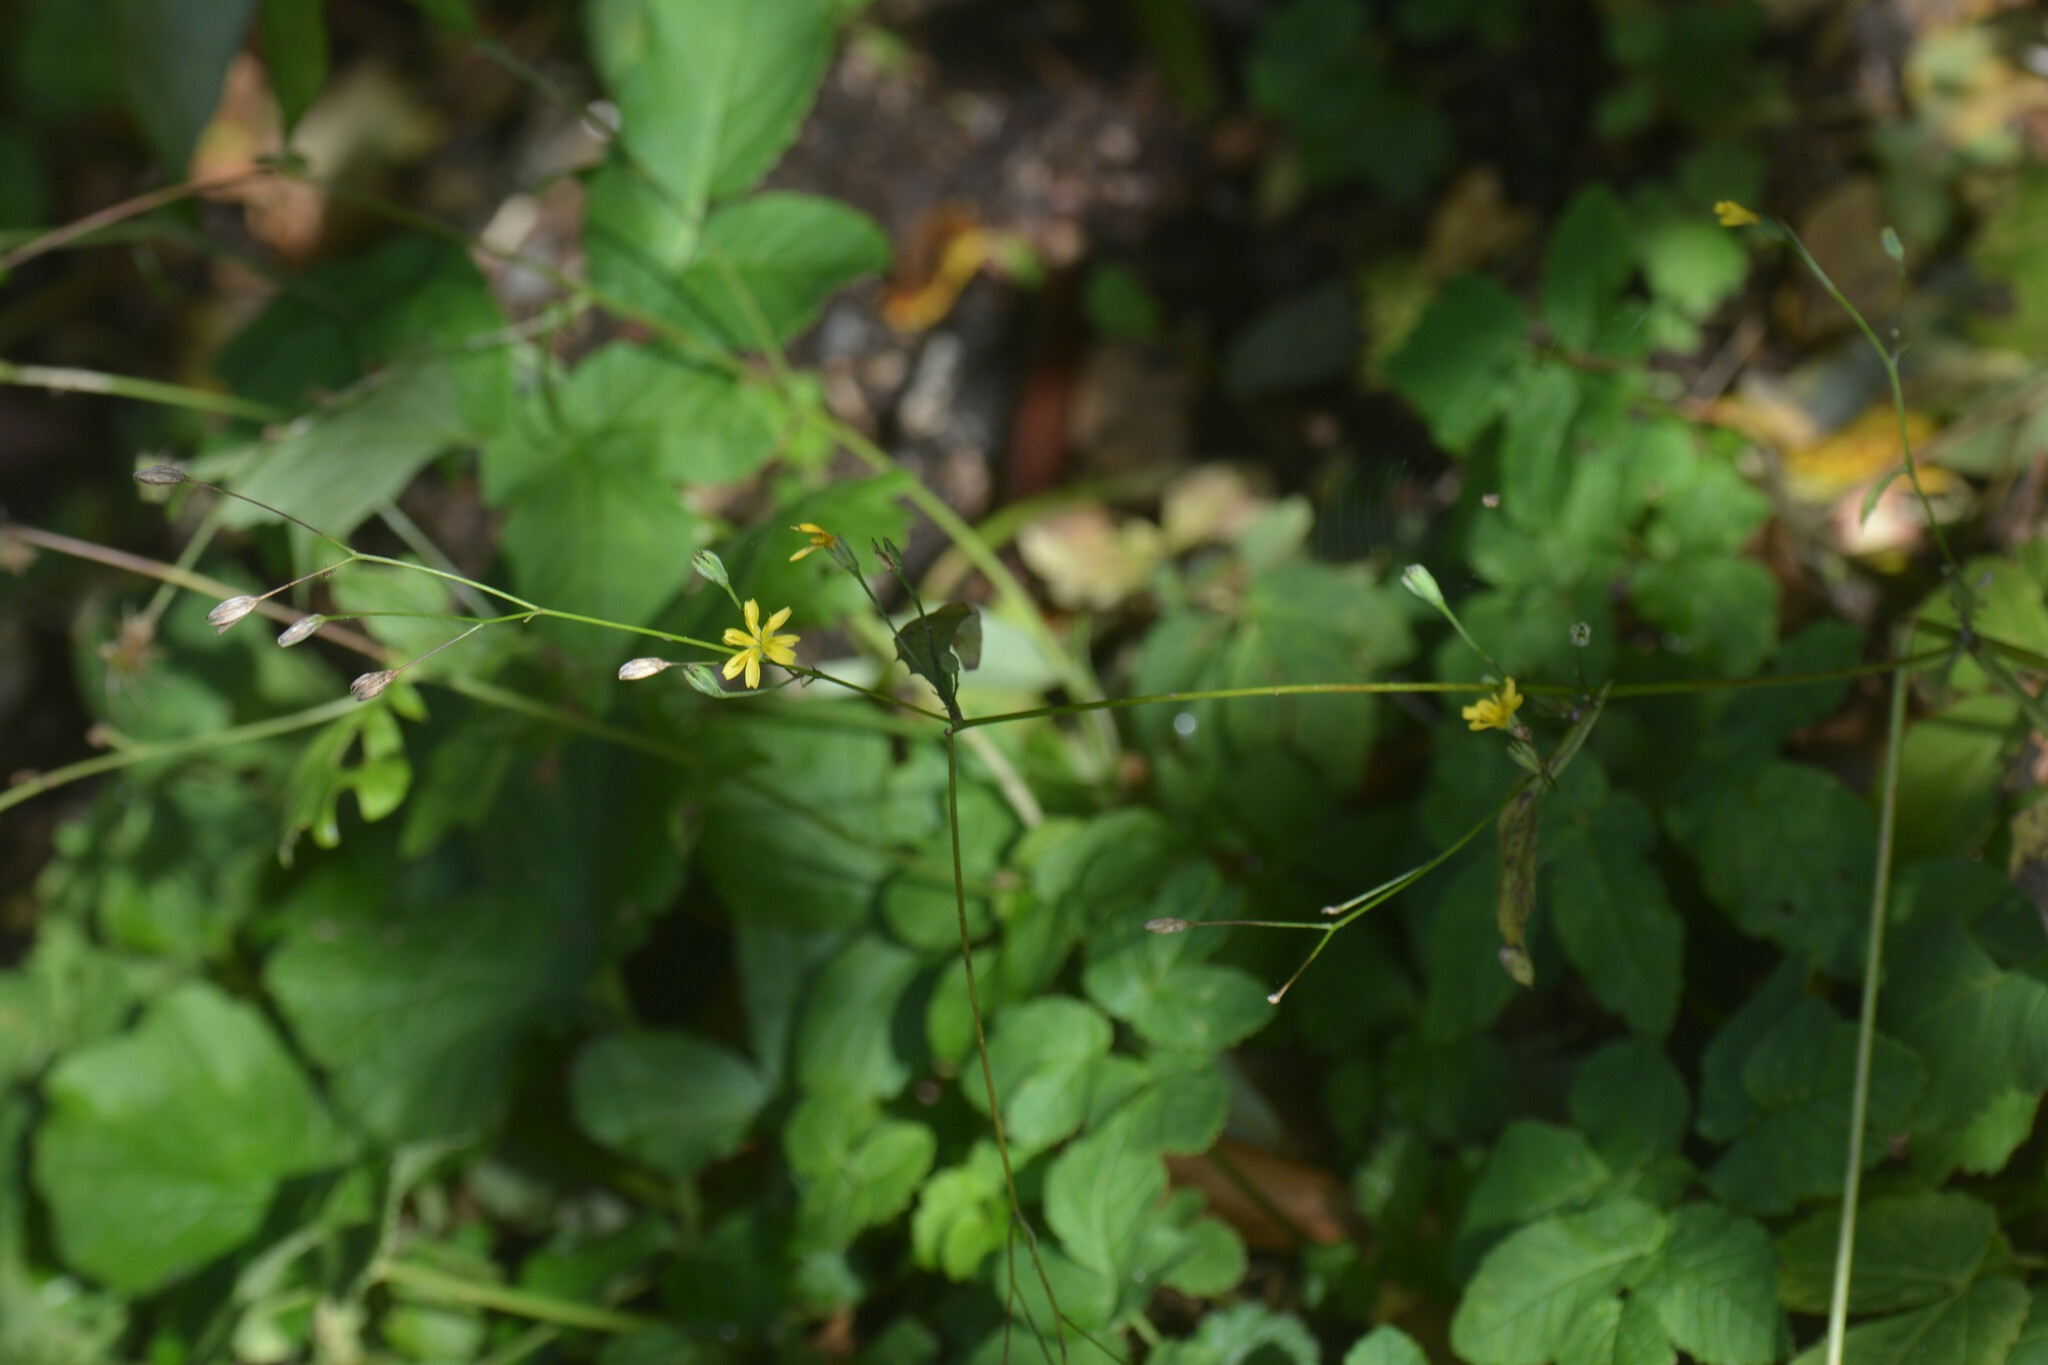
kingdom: Plantae
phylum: Tracheophyta
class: Magnoliopsida
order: Asterales
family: Asteraceae
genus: Lapsana
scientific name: Lapsana communis
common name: Nipplewort
